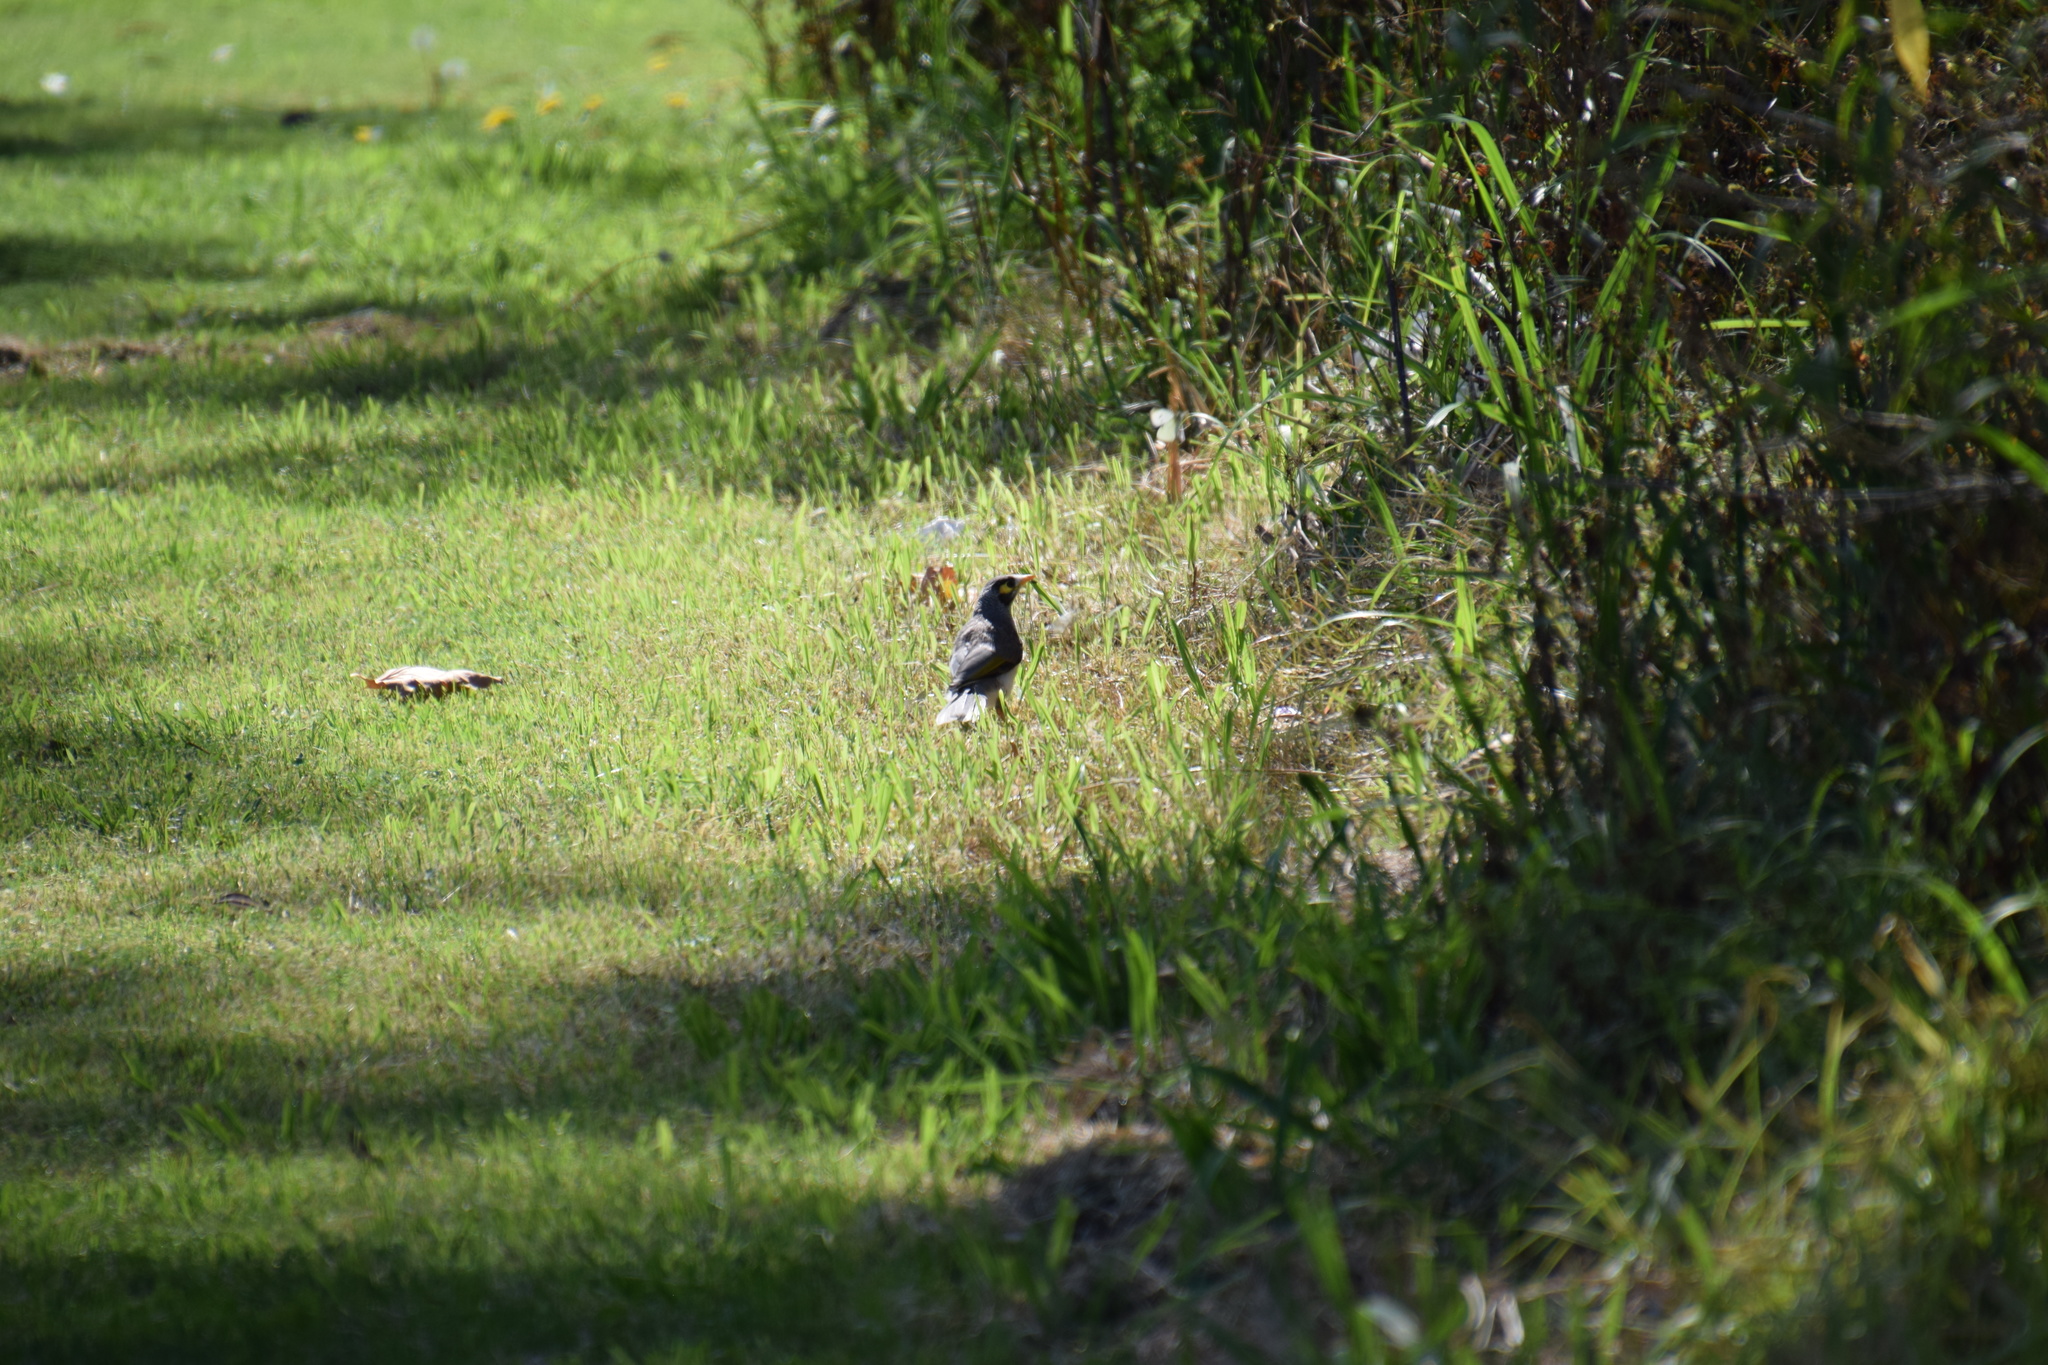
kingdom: Animalia
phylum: Chordata
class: Aves
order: Passeriformes
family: Meliphagidae
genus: Manorina
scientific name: Manorina melanocephala
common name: Noisy miner
